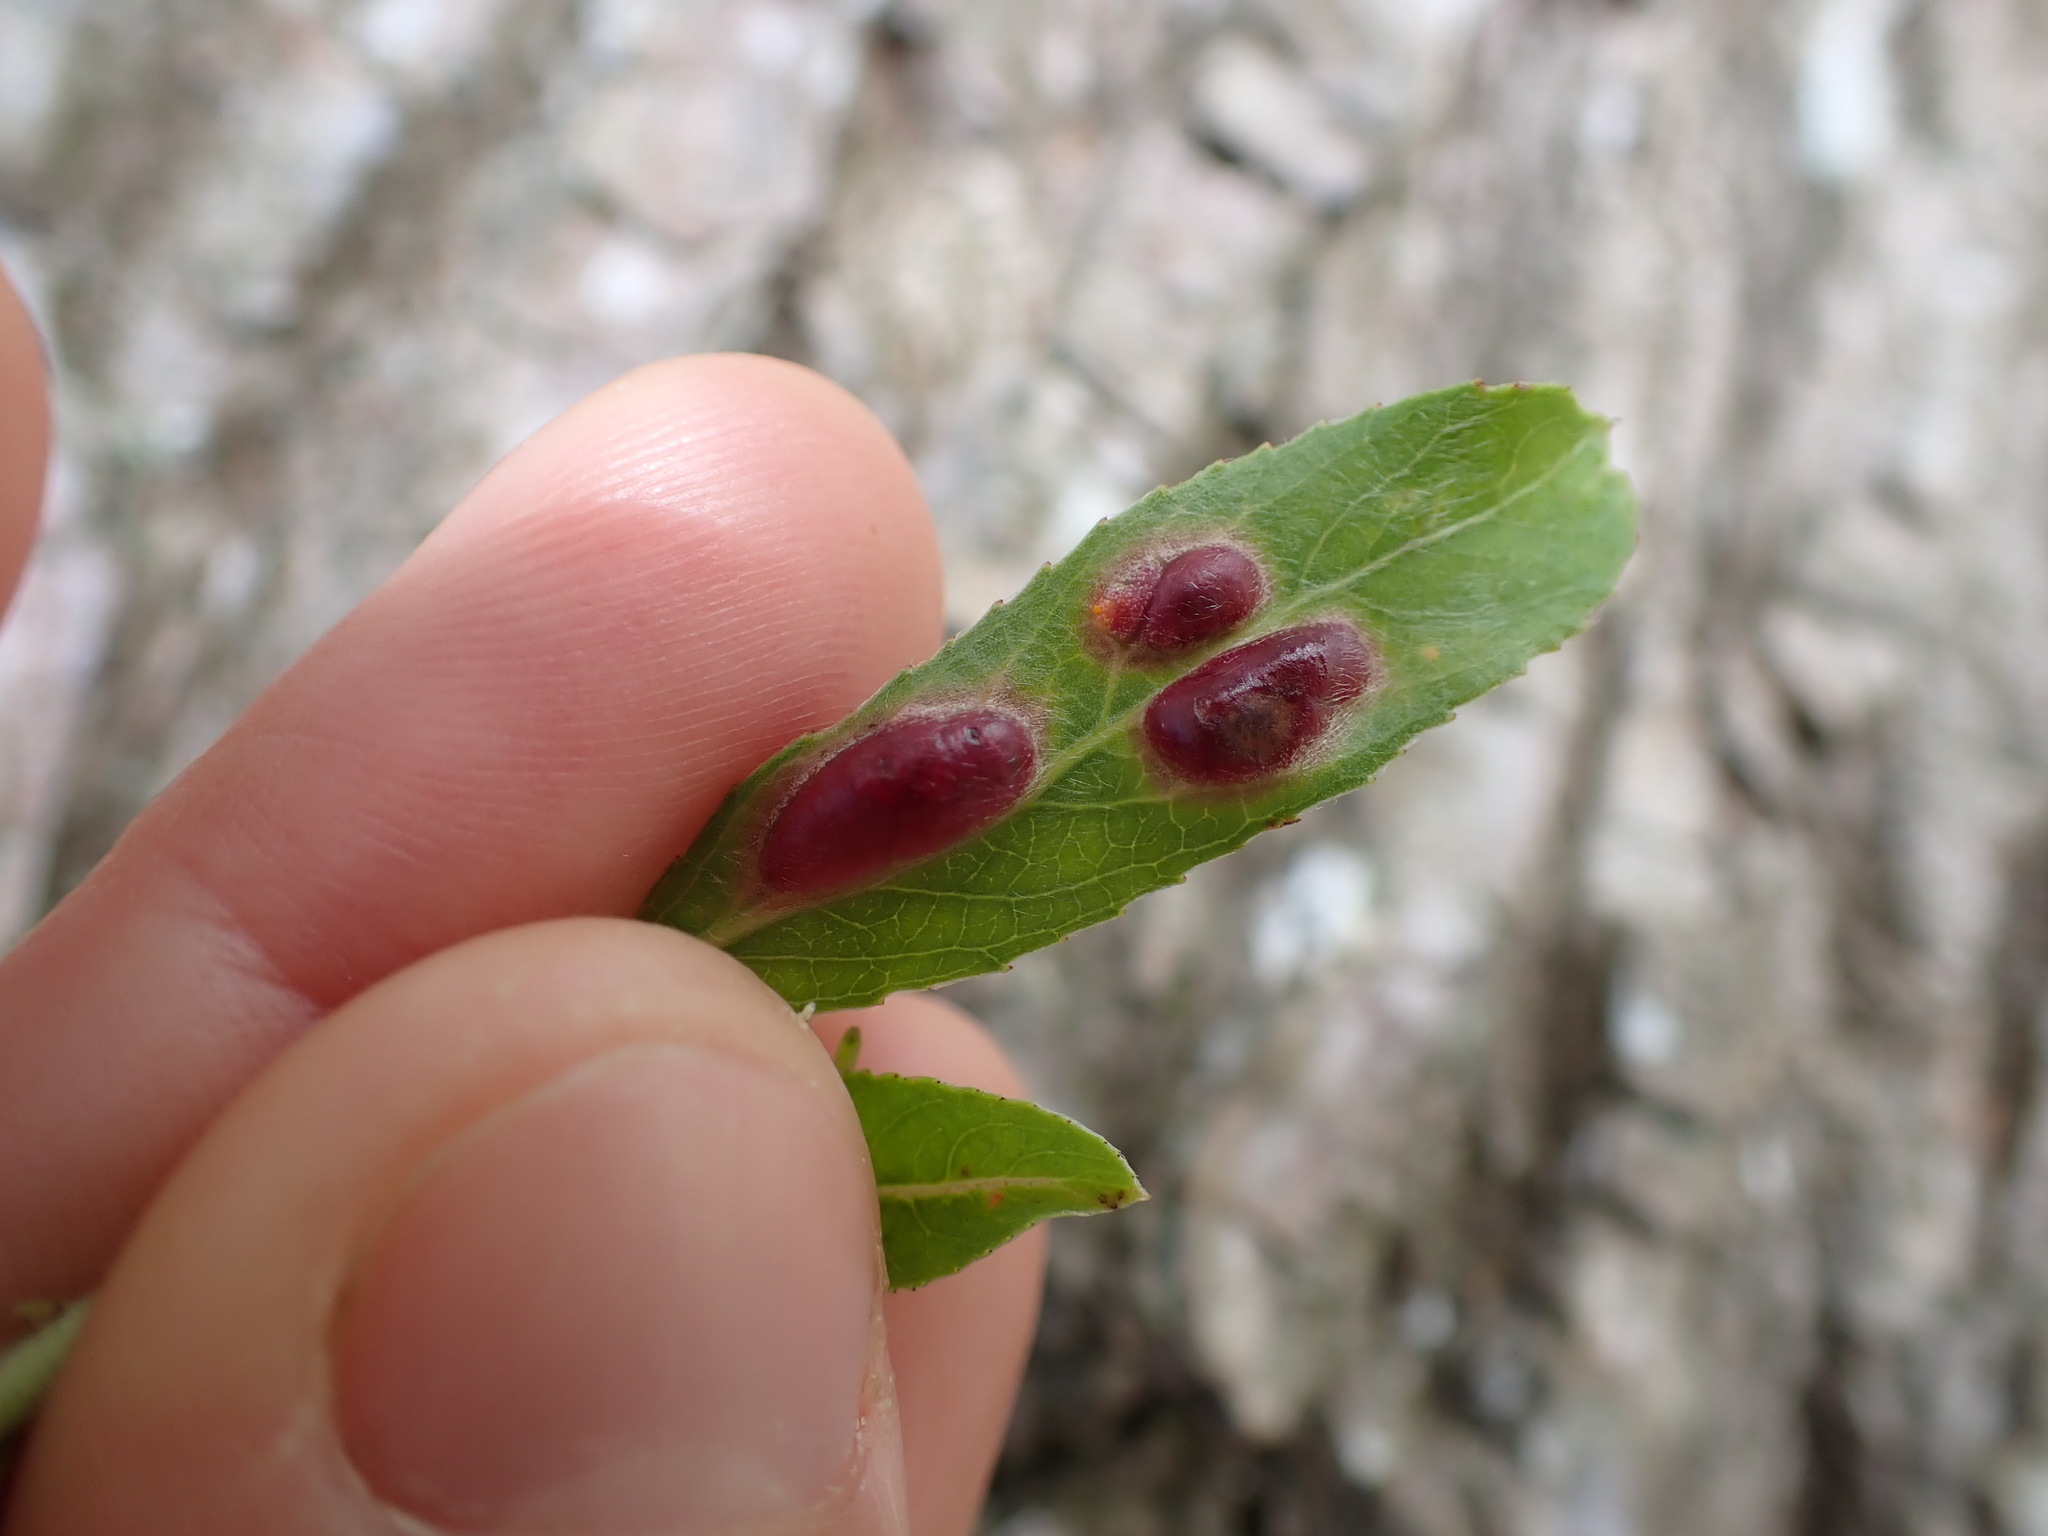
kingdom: Animalia
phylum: Arthropoda
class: Insecta
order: Hymenoptera
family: Tenthredinidae
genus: Pontania
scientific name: Pontania proxima
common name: Common sawfly
